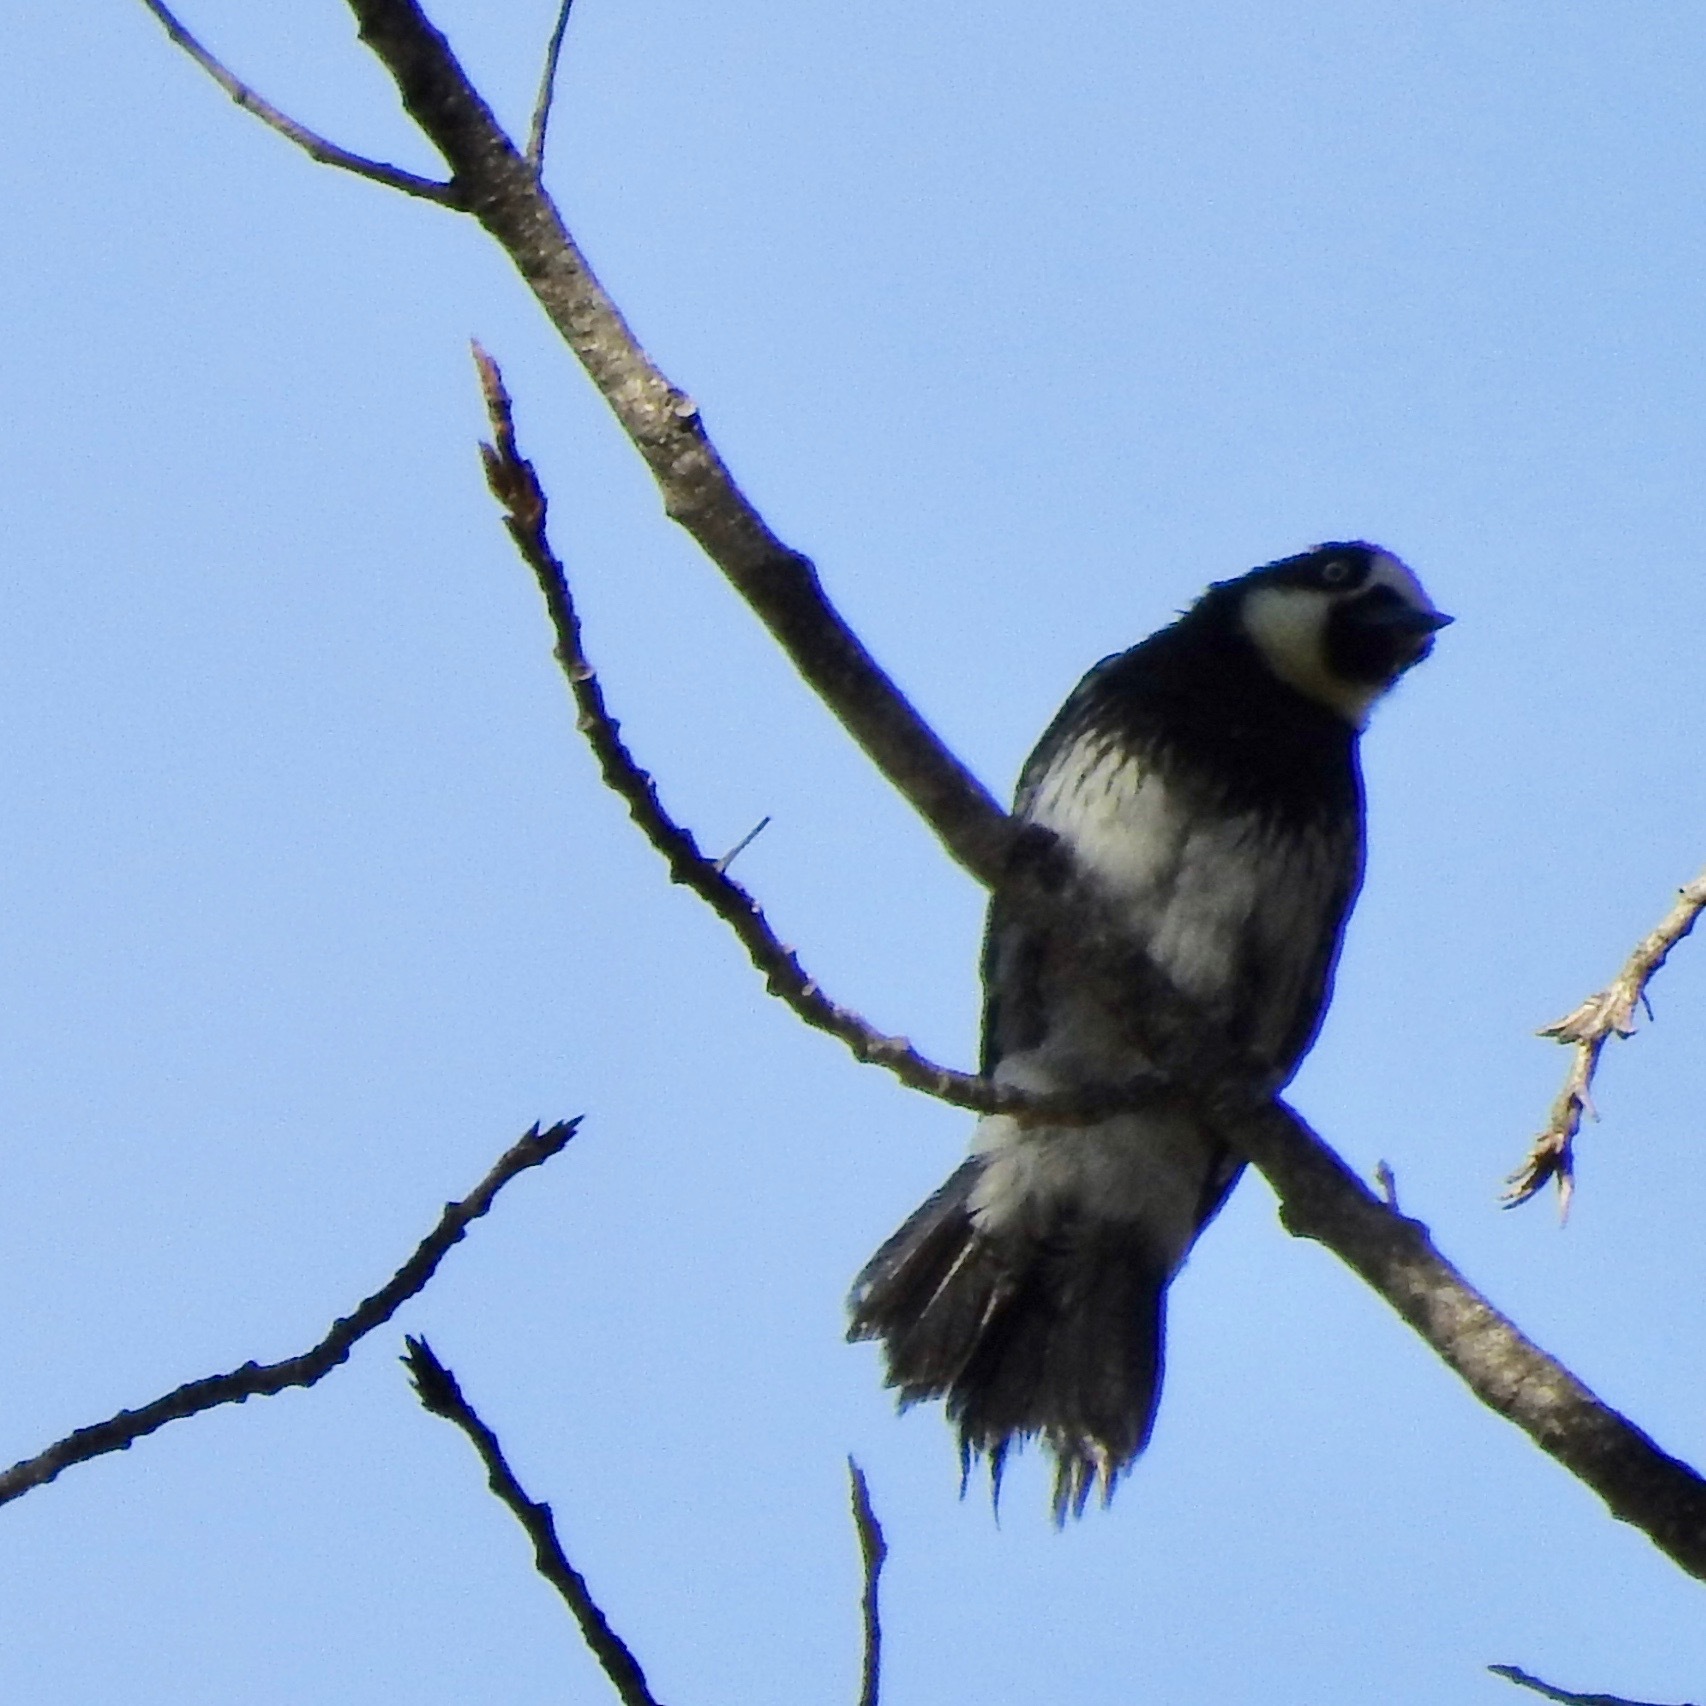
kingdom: Animalia
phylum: Chordata
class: Aves
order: Piciformes
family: Picidae
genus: Melanerpes
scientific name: Melanerpes formicivorus
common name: Acorn woodpecker
